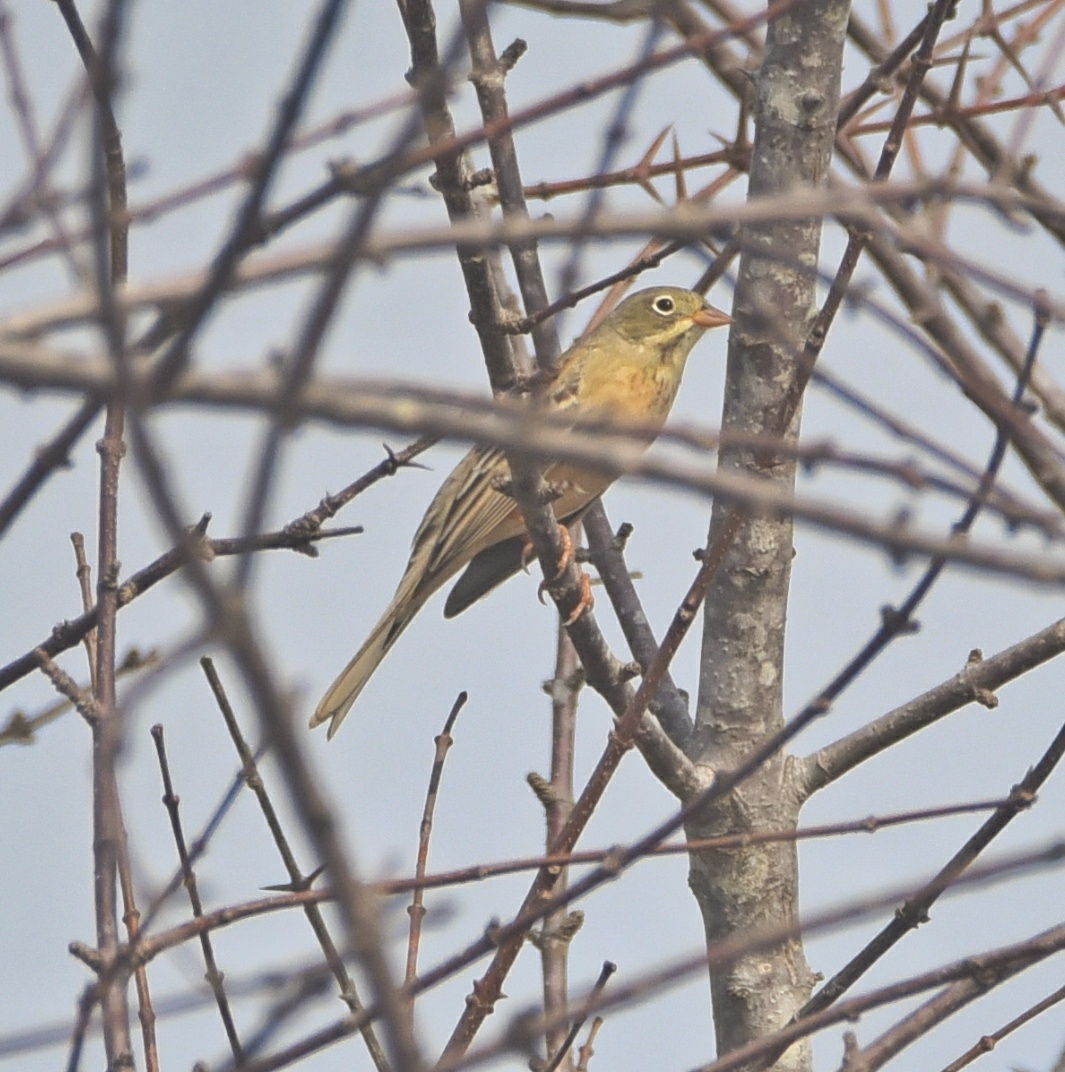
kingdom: Animalia
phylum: Chordata
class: Aves
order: Passeriformes
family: Emberizidae
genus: Emberiza
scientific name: Emberiza buchanani
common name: Grey-necked bunting
